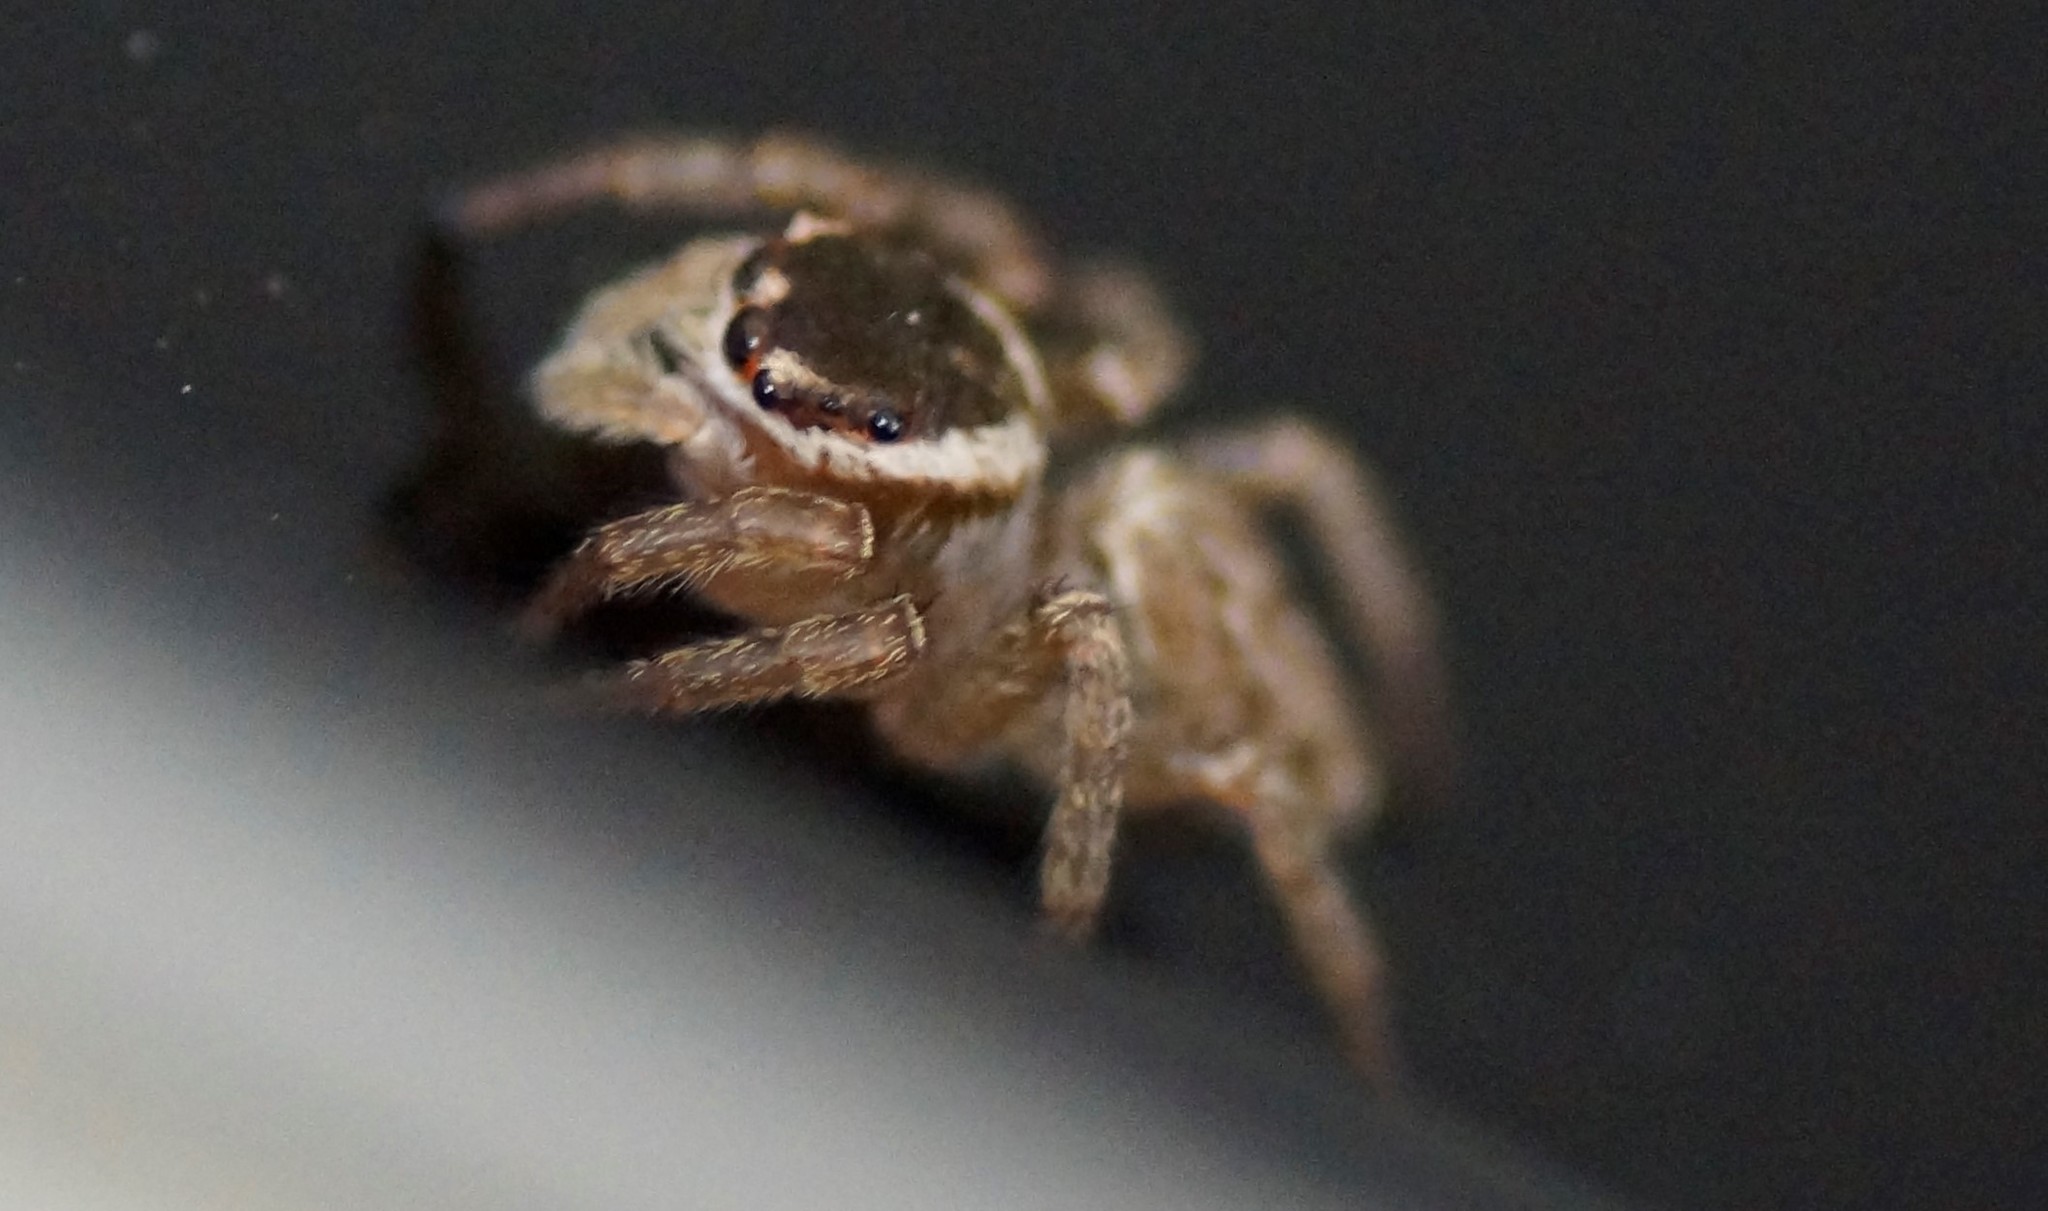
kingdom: Animalia
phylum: Arthropoda
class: Arachnida
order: Araneae
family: Salticidae
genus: Maratus
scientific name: Maratus griseus
